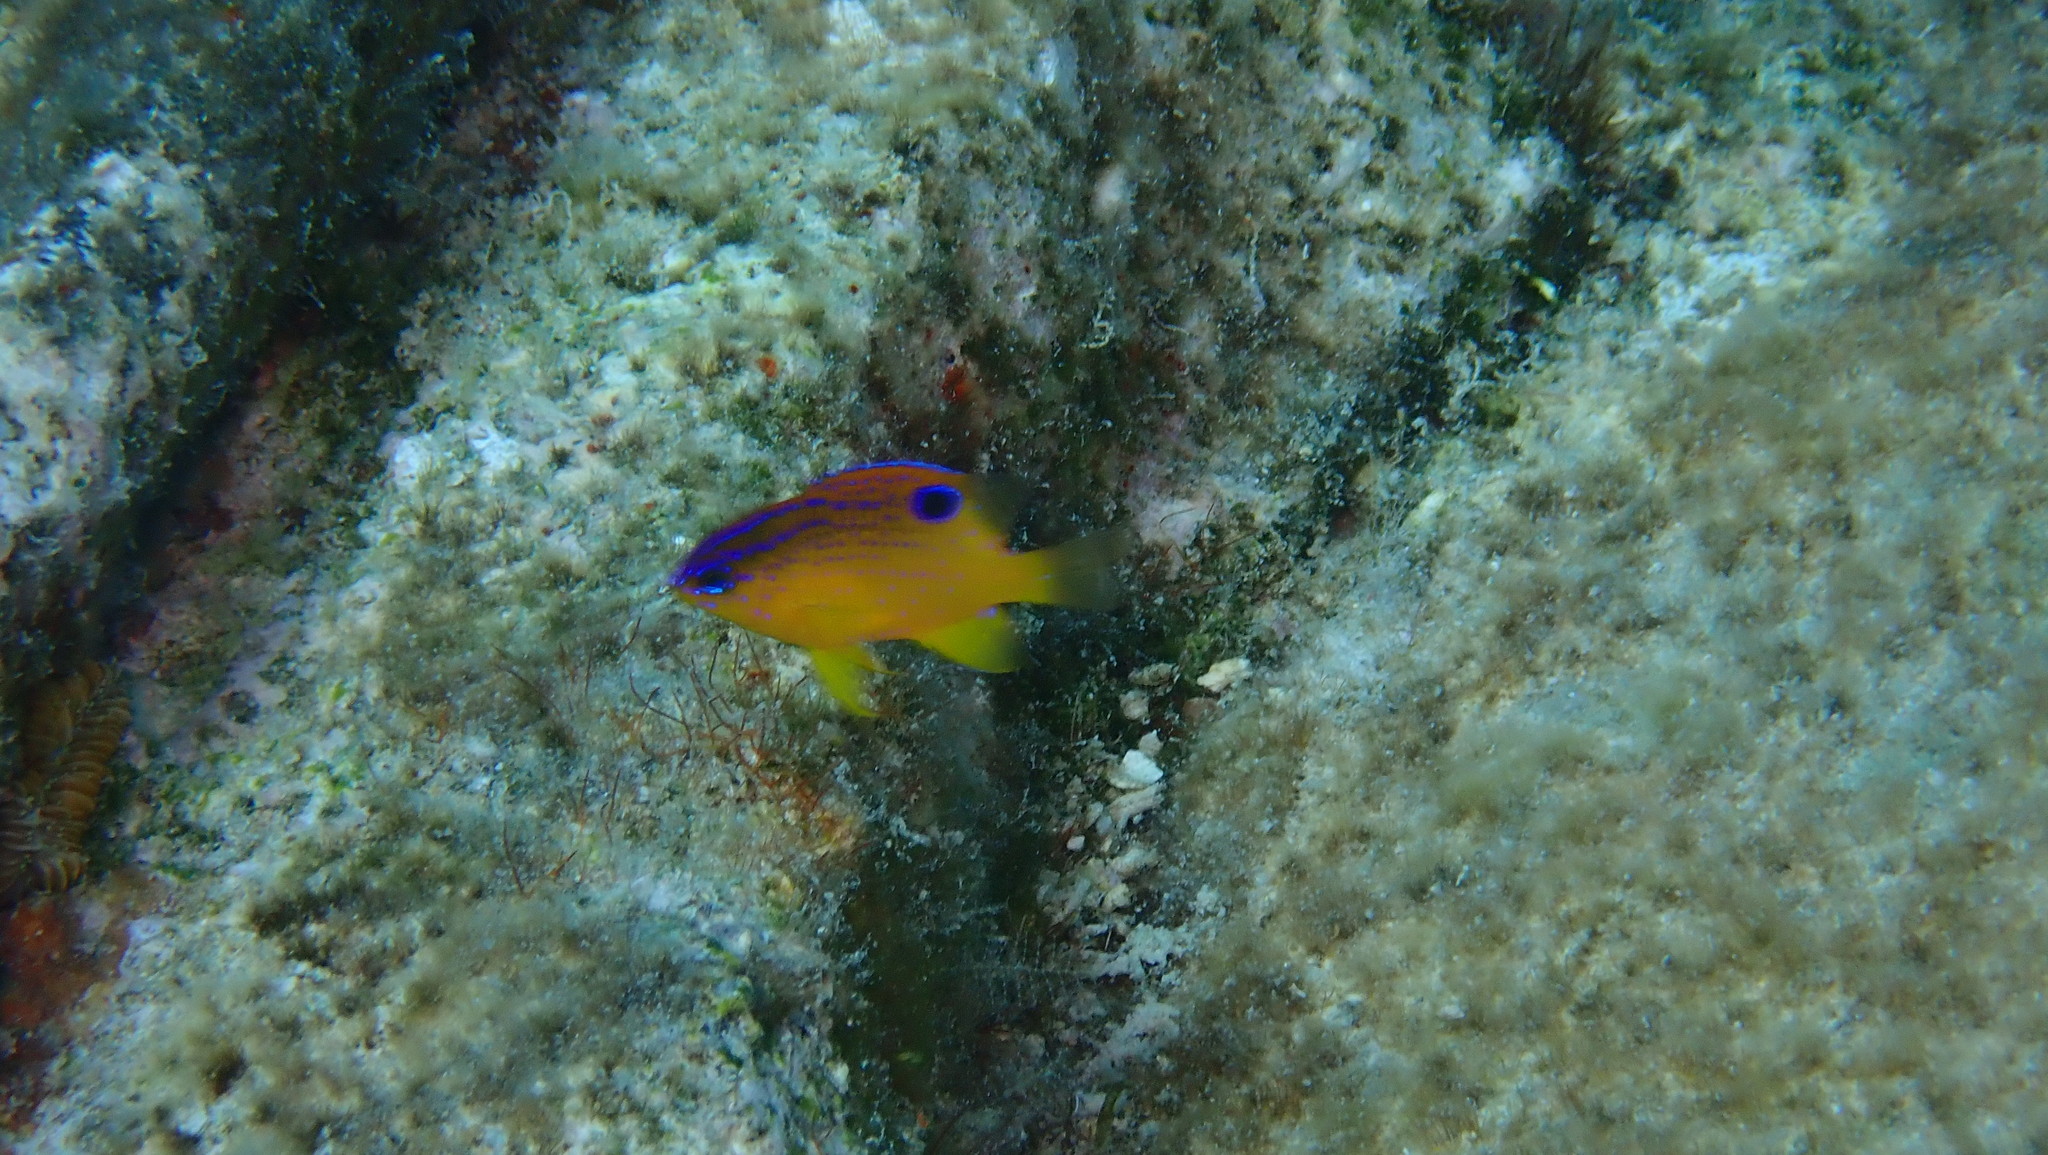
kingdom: Animalia
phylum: Chordata
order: Perciformes
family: Pomacentridae
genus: Stegastes
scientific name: Stegastes diencaeus
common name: Longfin damselfish
